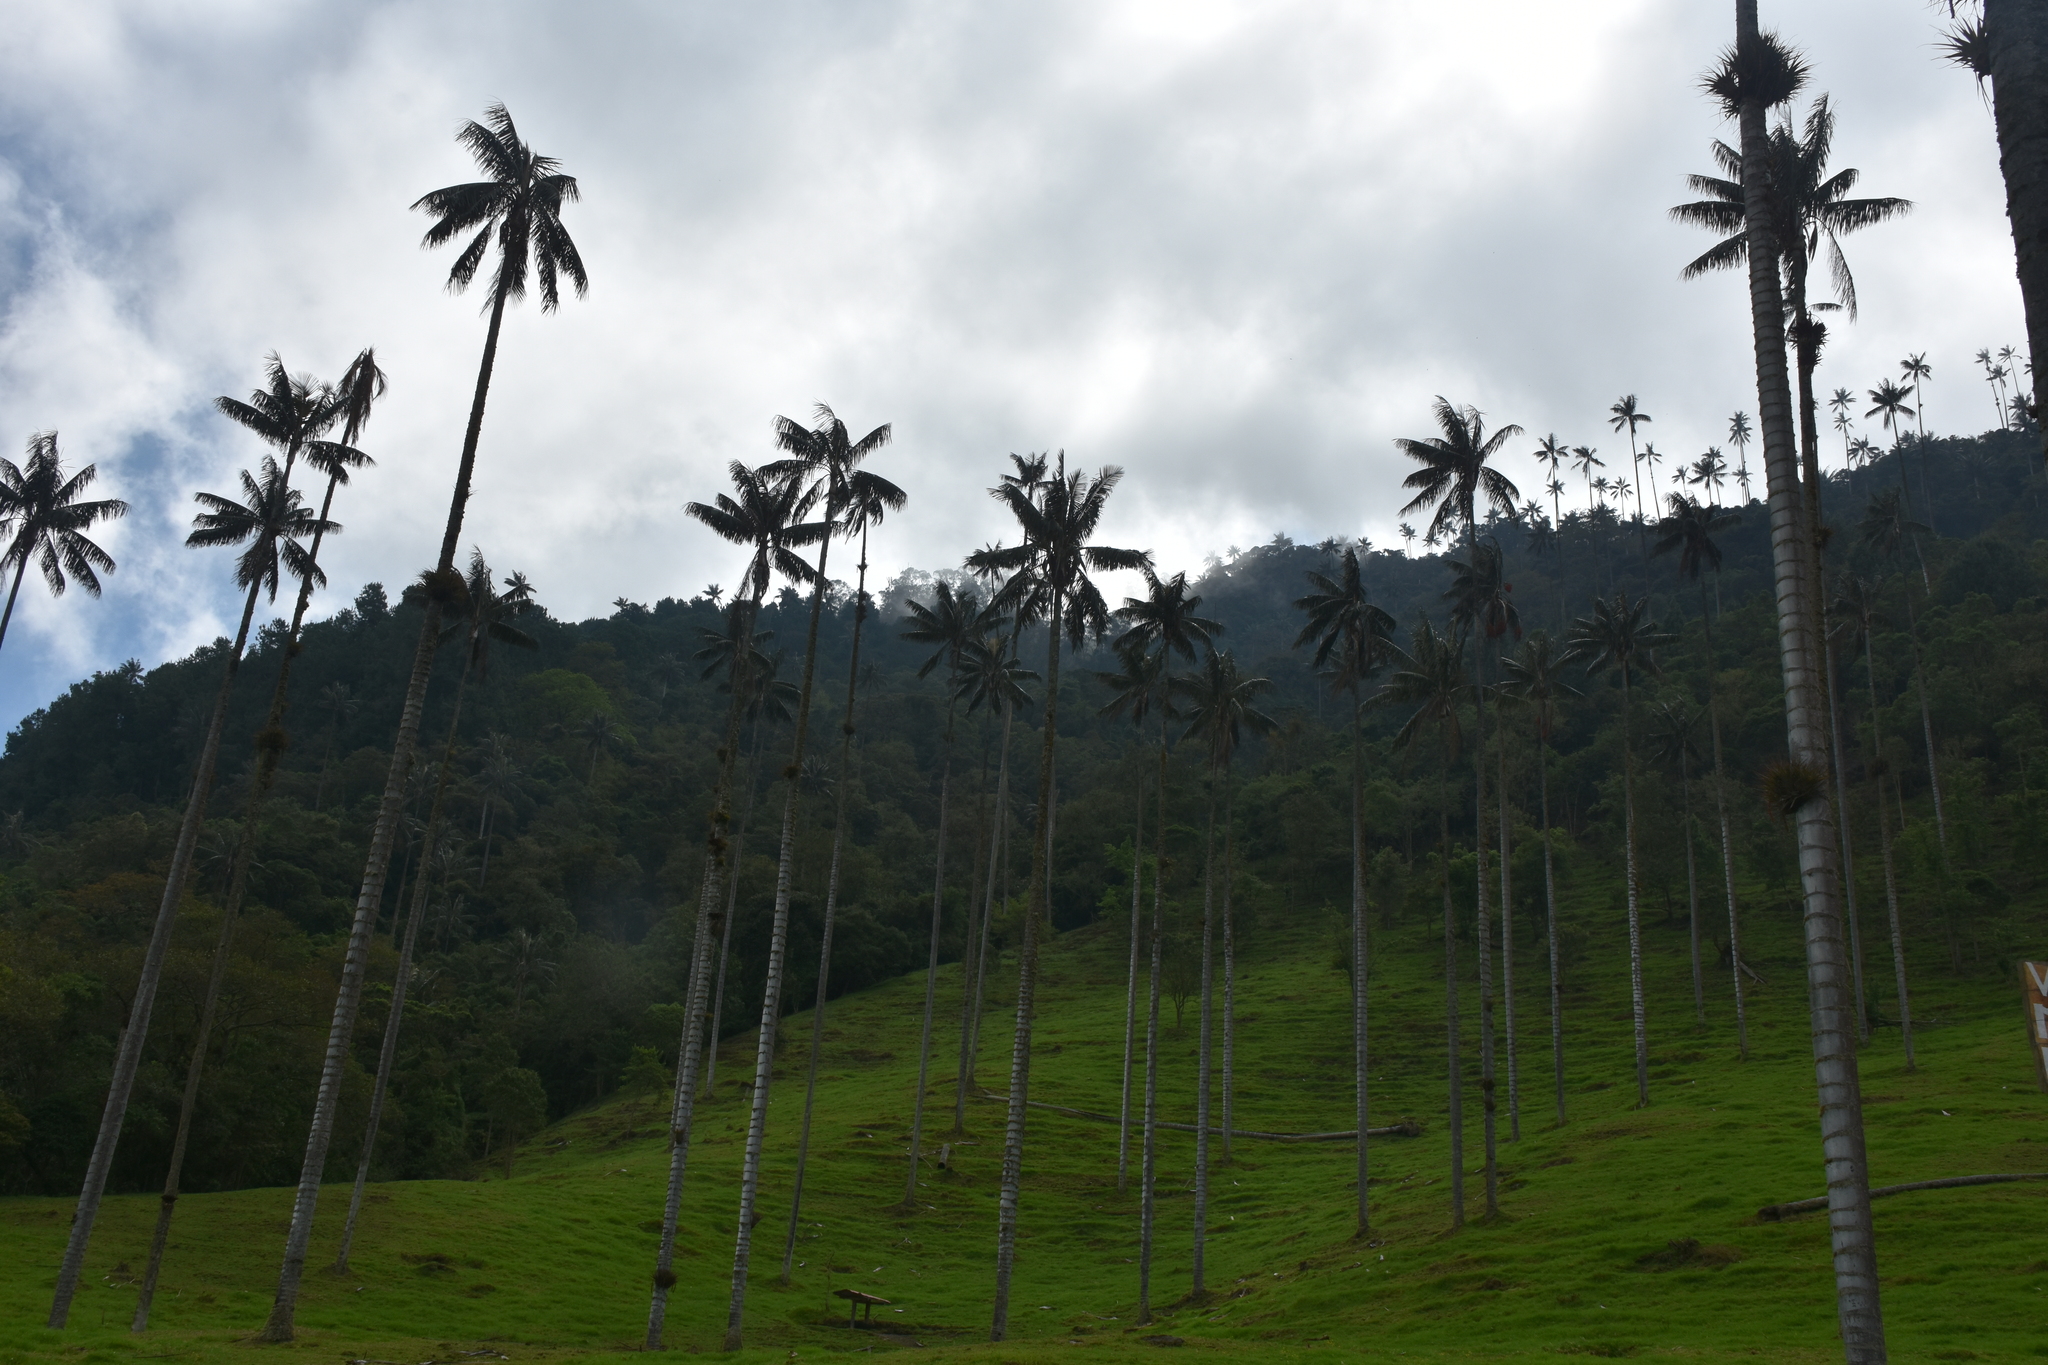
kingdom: Plantae
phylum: Tracheophyta
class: Liliopsida
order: Arecales
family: Arecaceae
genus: Ceroxylon
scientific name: Ceroxylon quindiuense
